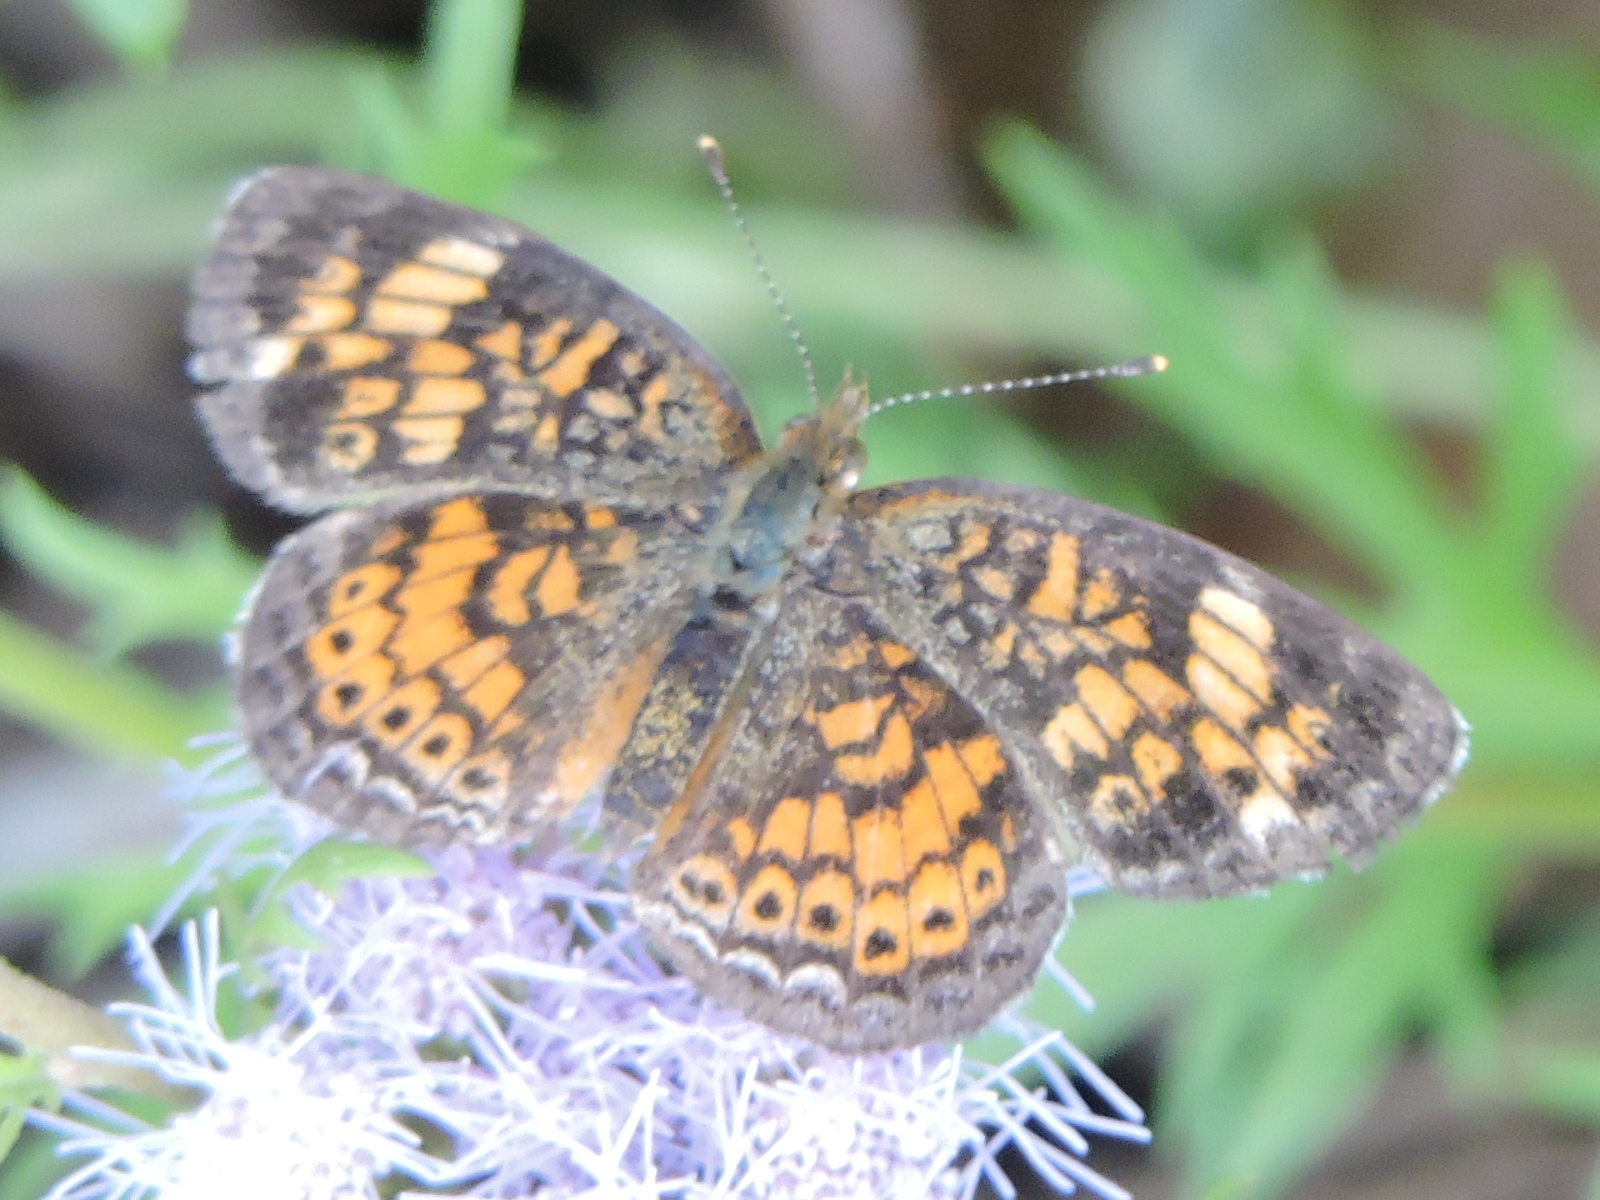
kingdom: Animalia
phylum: Arthropoda
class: Insecta
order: Lepidoptera
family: Nymphalidae
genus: Phyciodes
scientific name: Phyciodes tharos
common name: Pearl crescent
